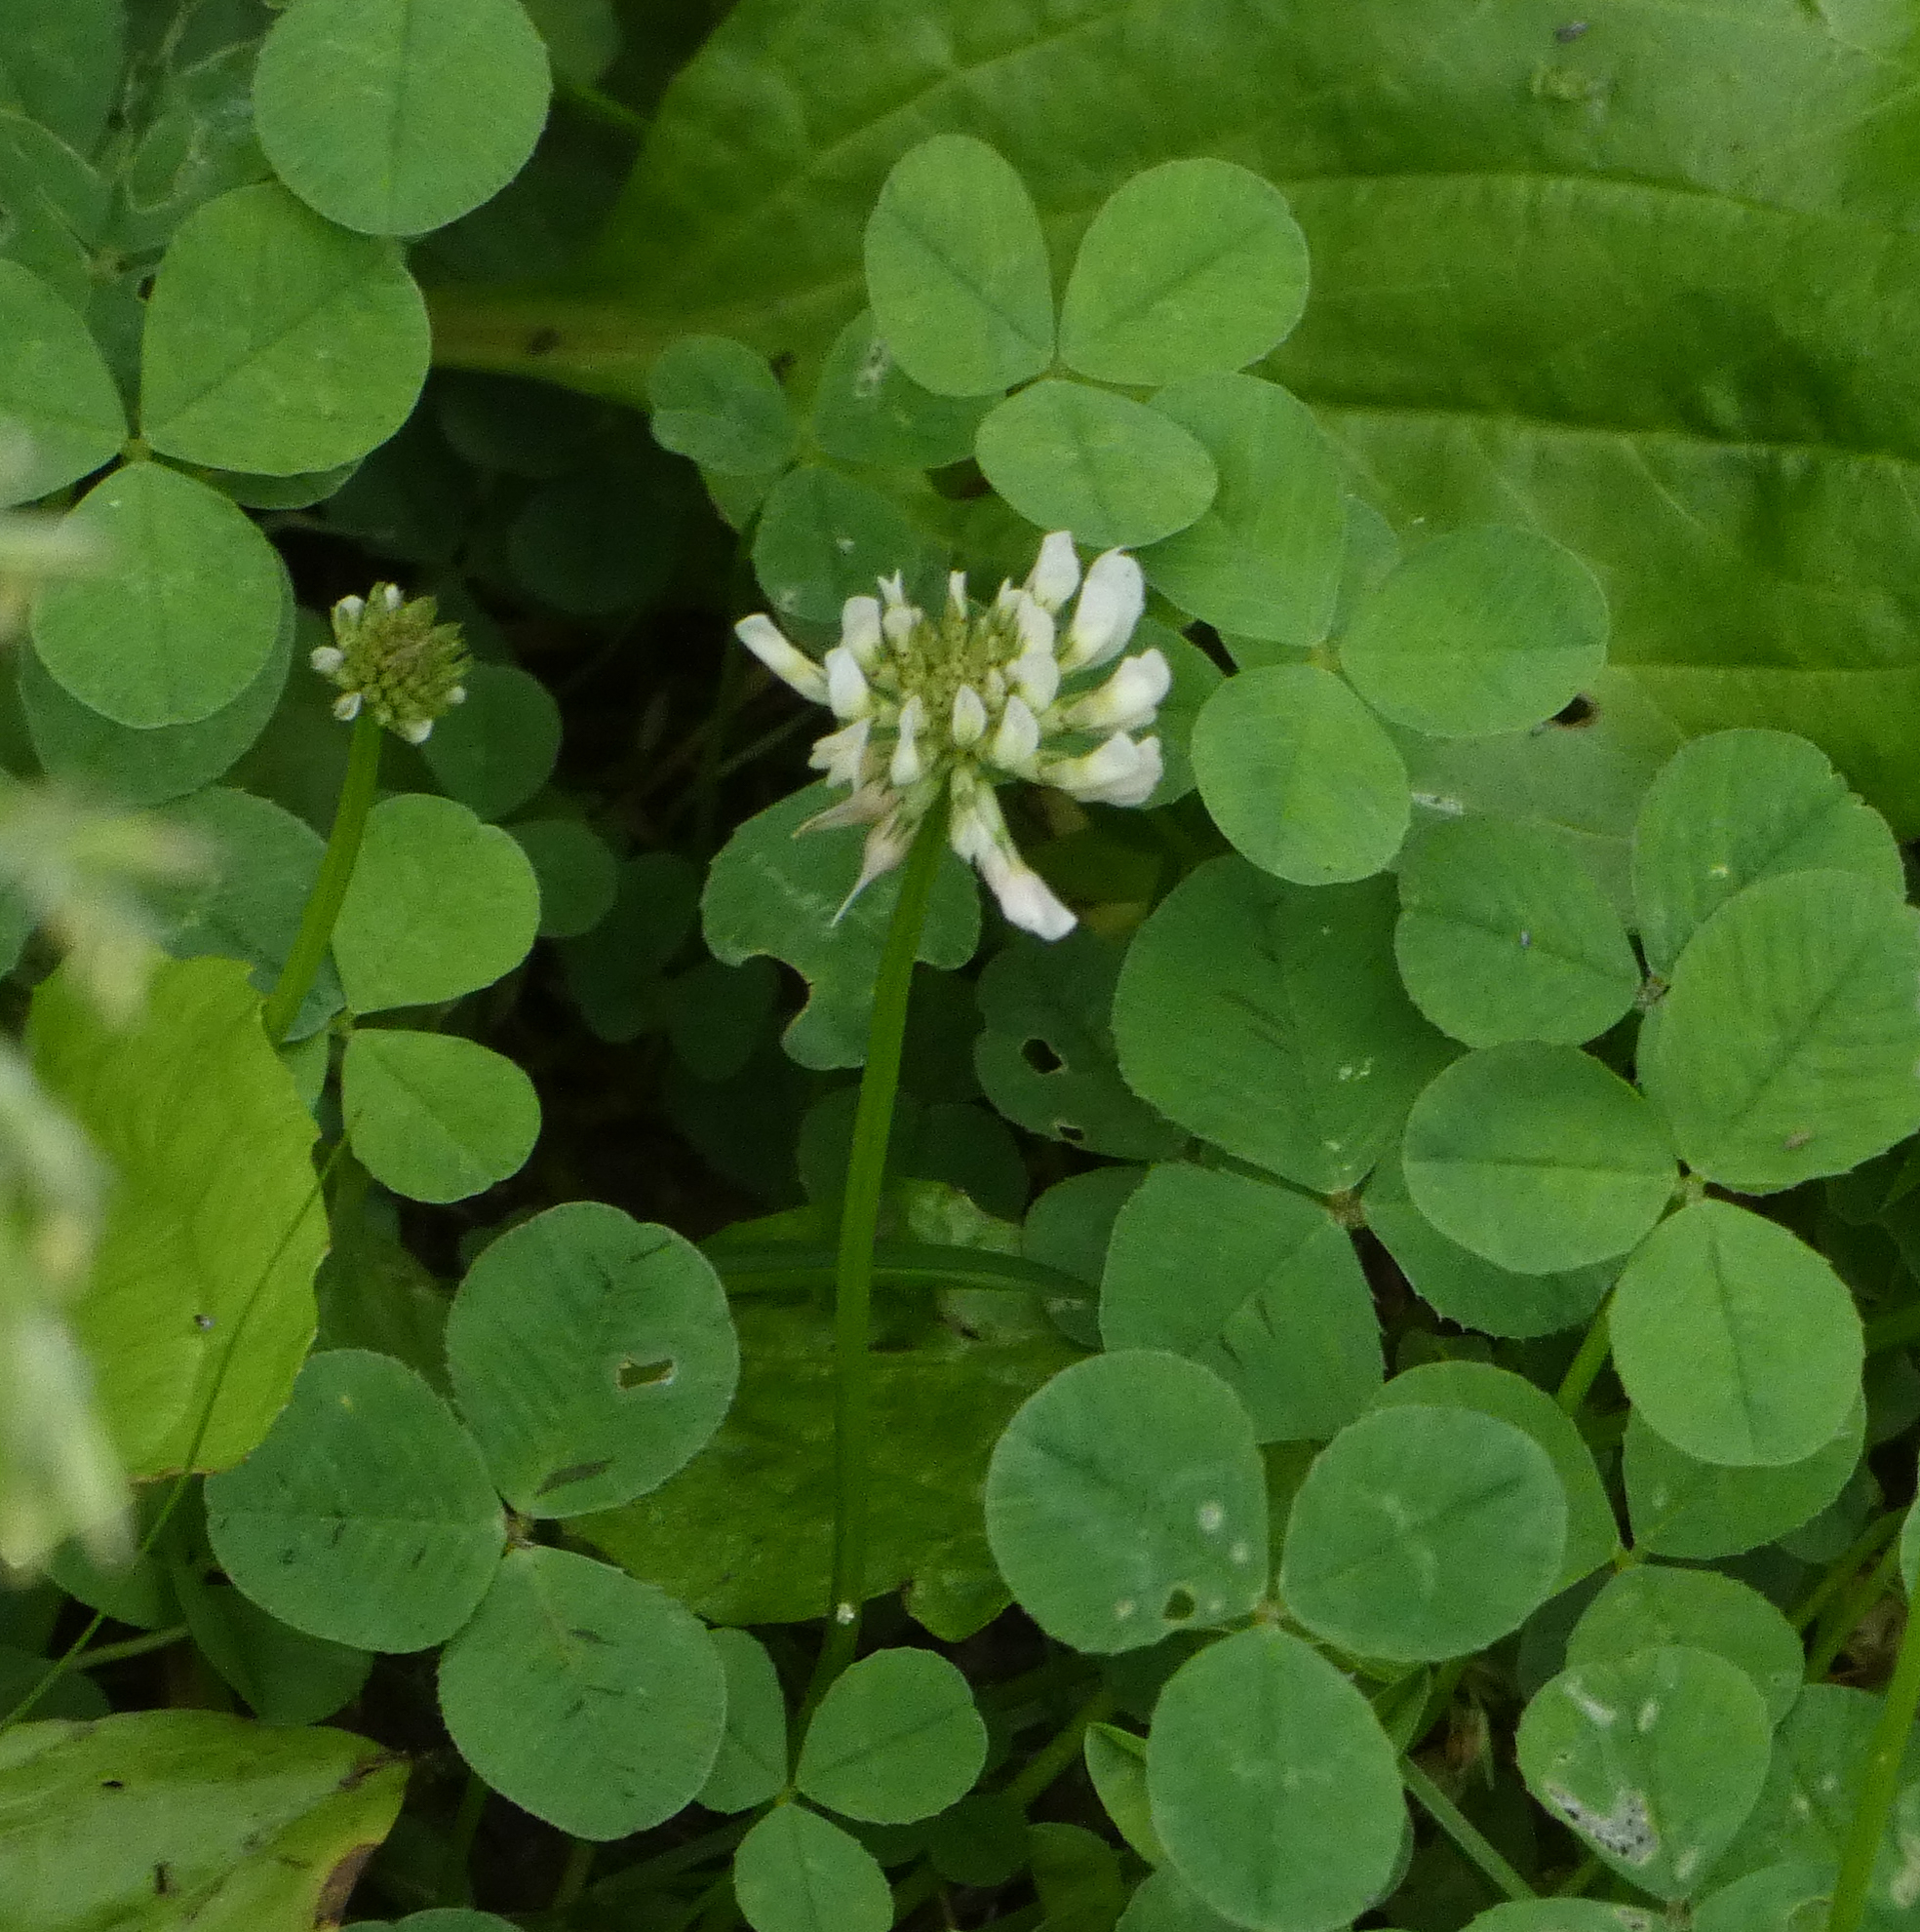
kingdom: Plantae
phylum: Tracheophyta
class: Magnoliopsida
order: Fabales
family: Fabaceae
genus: Trifolium
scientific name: Trifolium repens
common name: White clover
